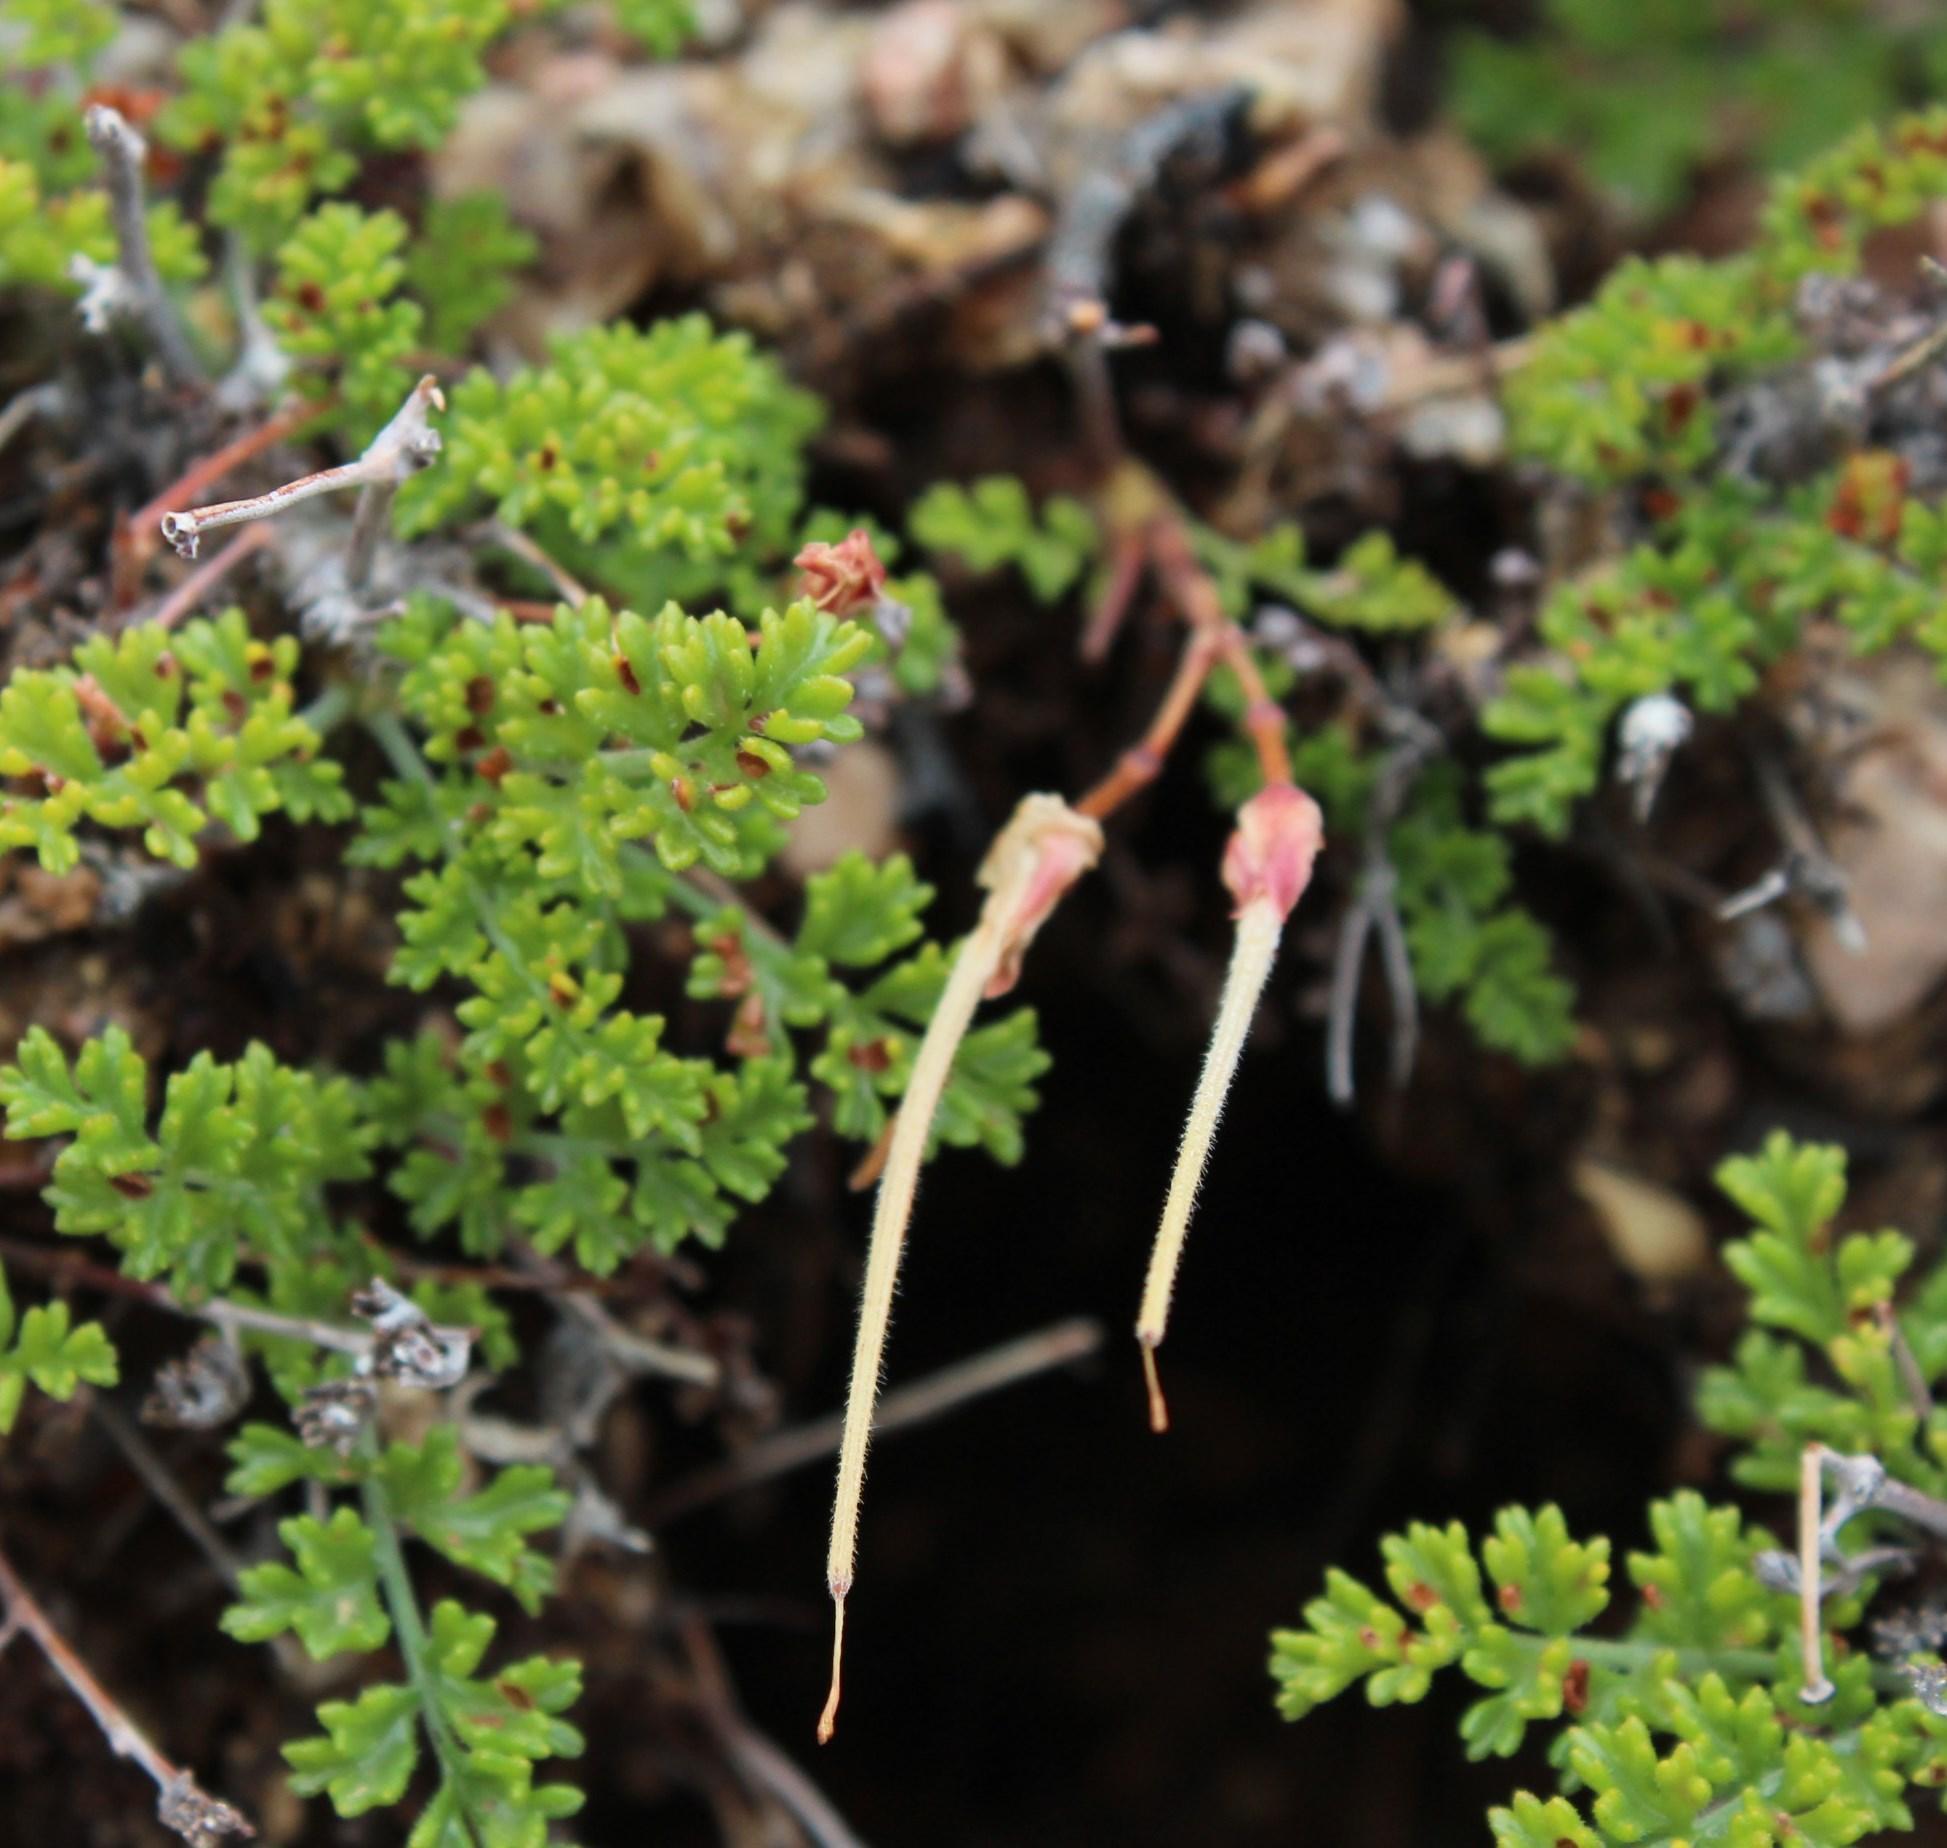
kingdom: Plantae
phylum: Tracheophyta
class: Magnoliopsida
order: Geraniales
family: Geraniaceae
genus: Pelargonium
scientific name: Pelargonium dasyphyllum
